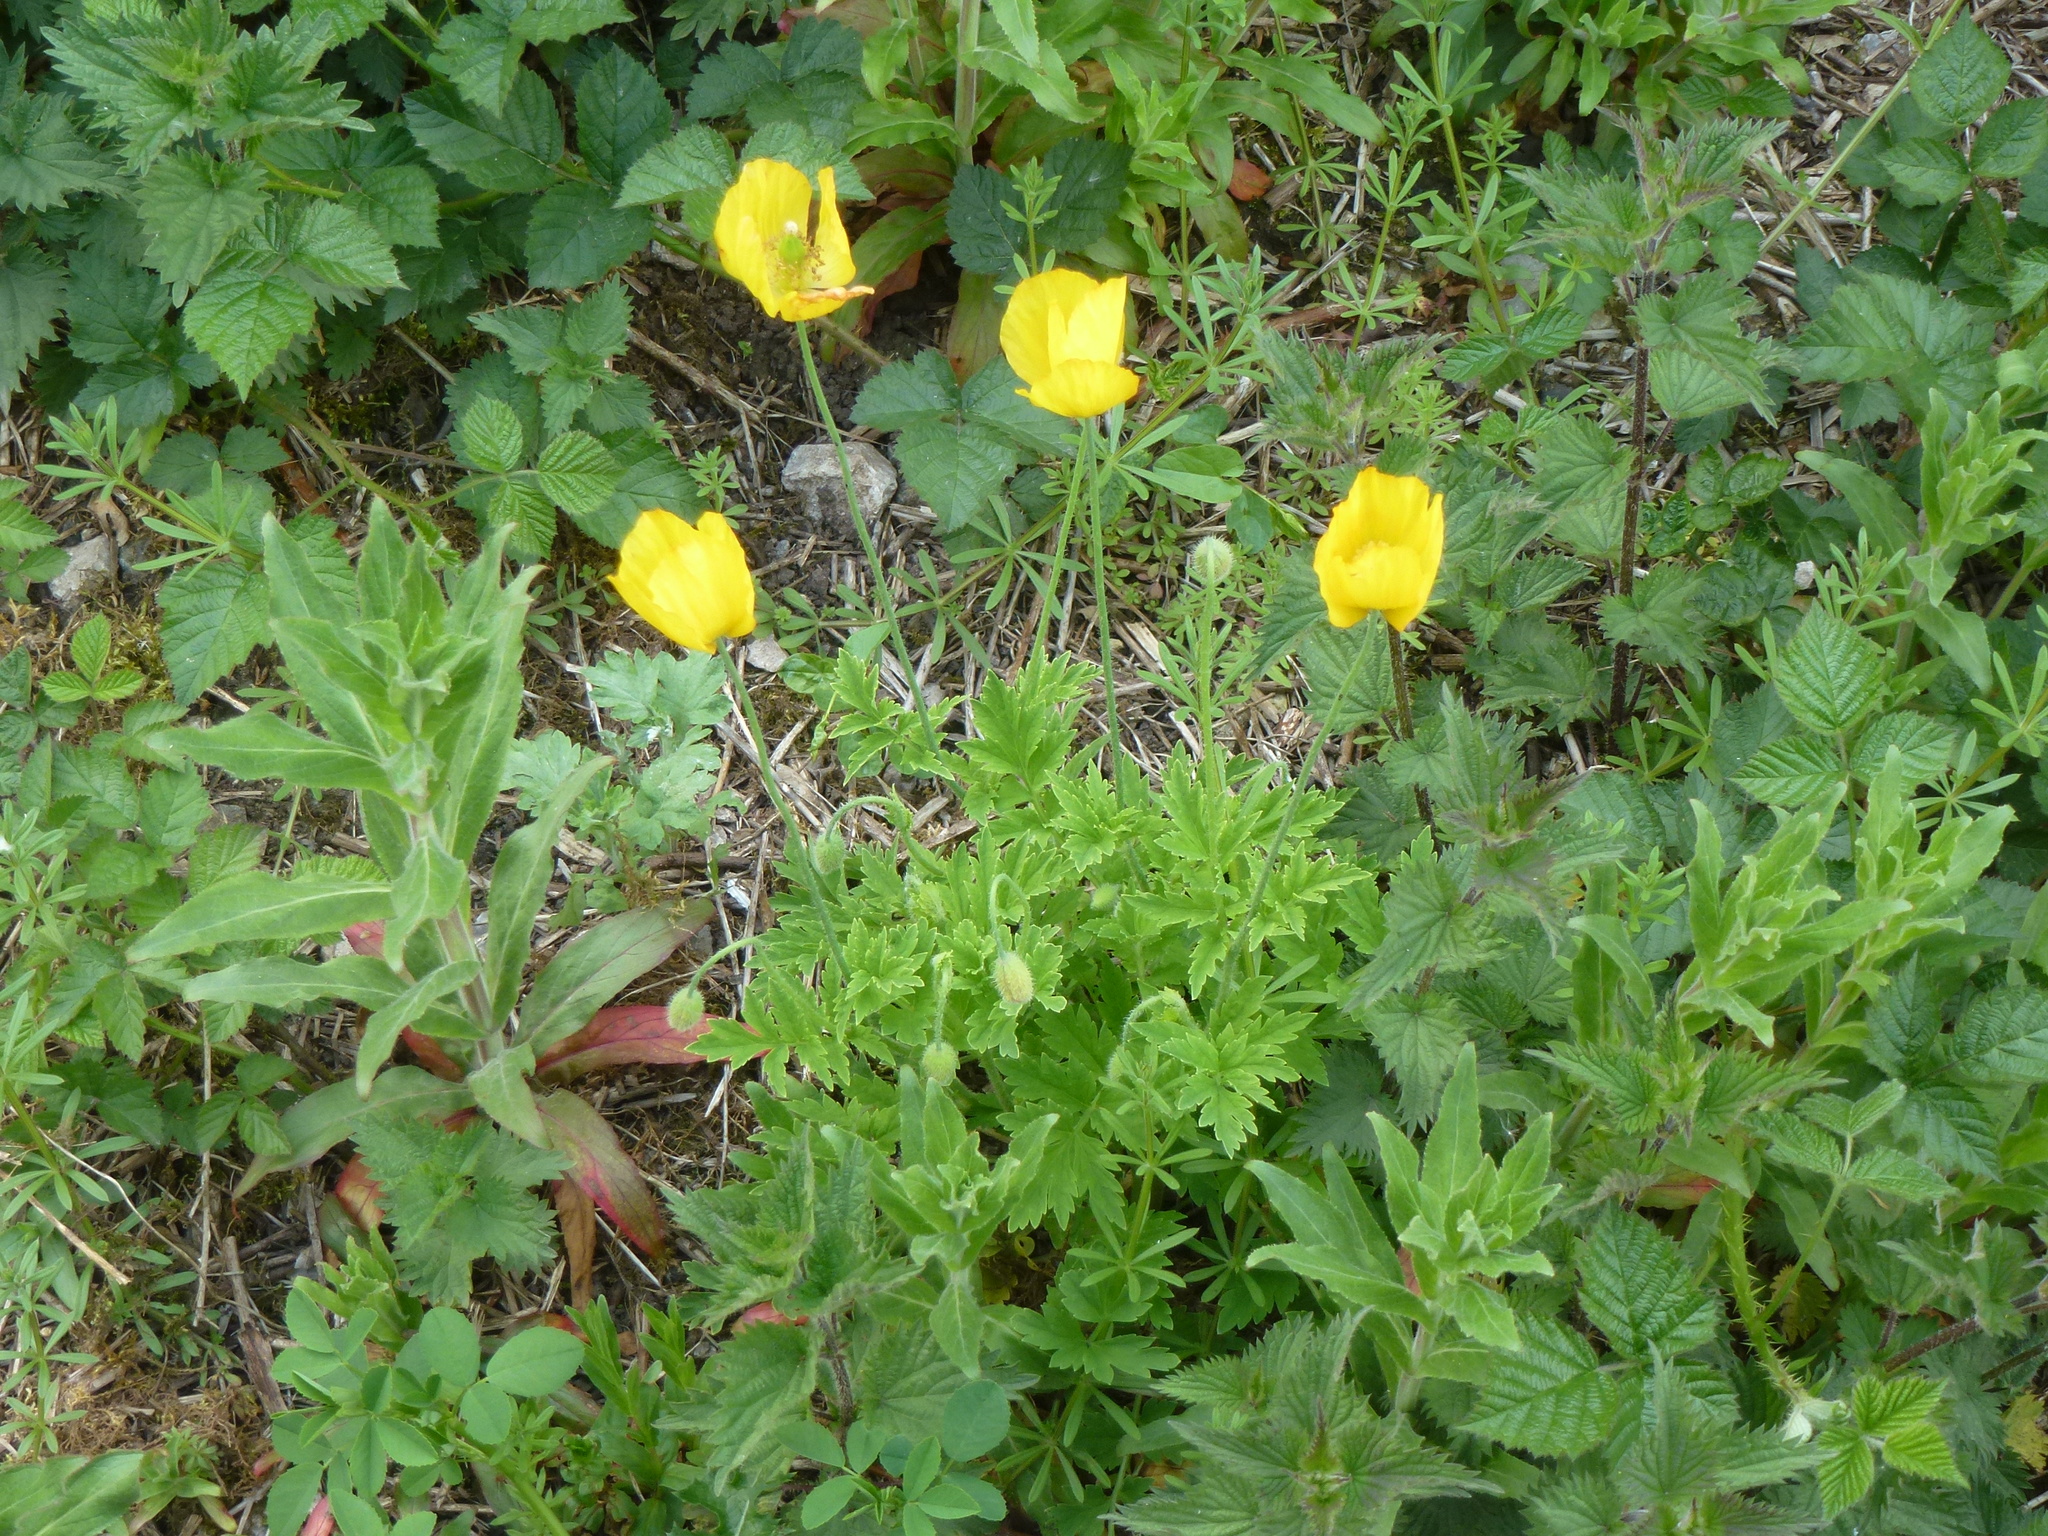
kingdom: Plantae
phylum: Tracheophyta
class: Magnoliopsida
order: Ranunculales
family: Papaveraceae
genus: Papaver
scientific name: Papaver cambricum
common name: Poppy
